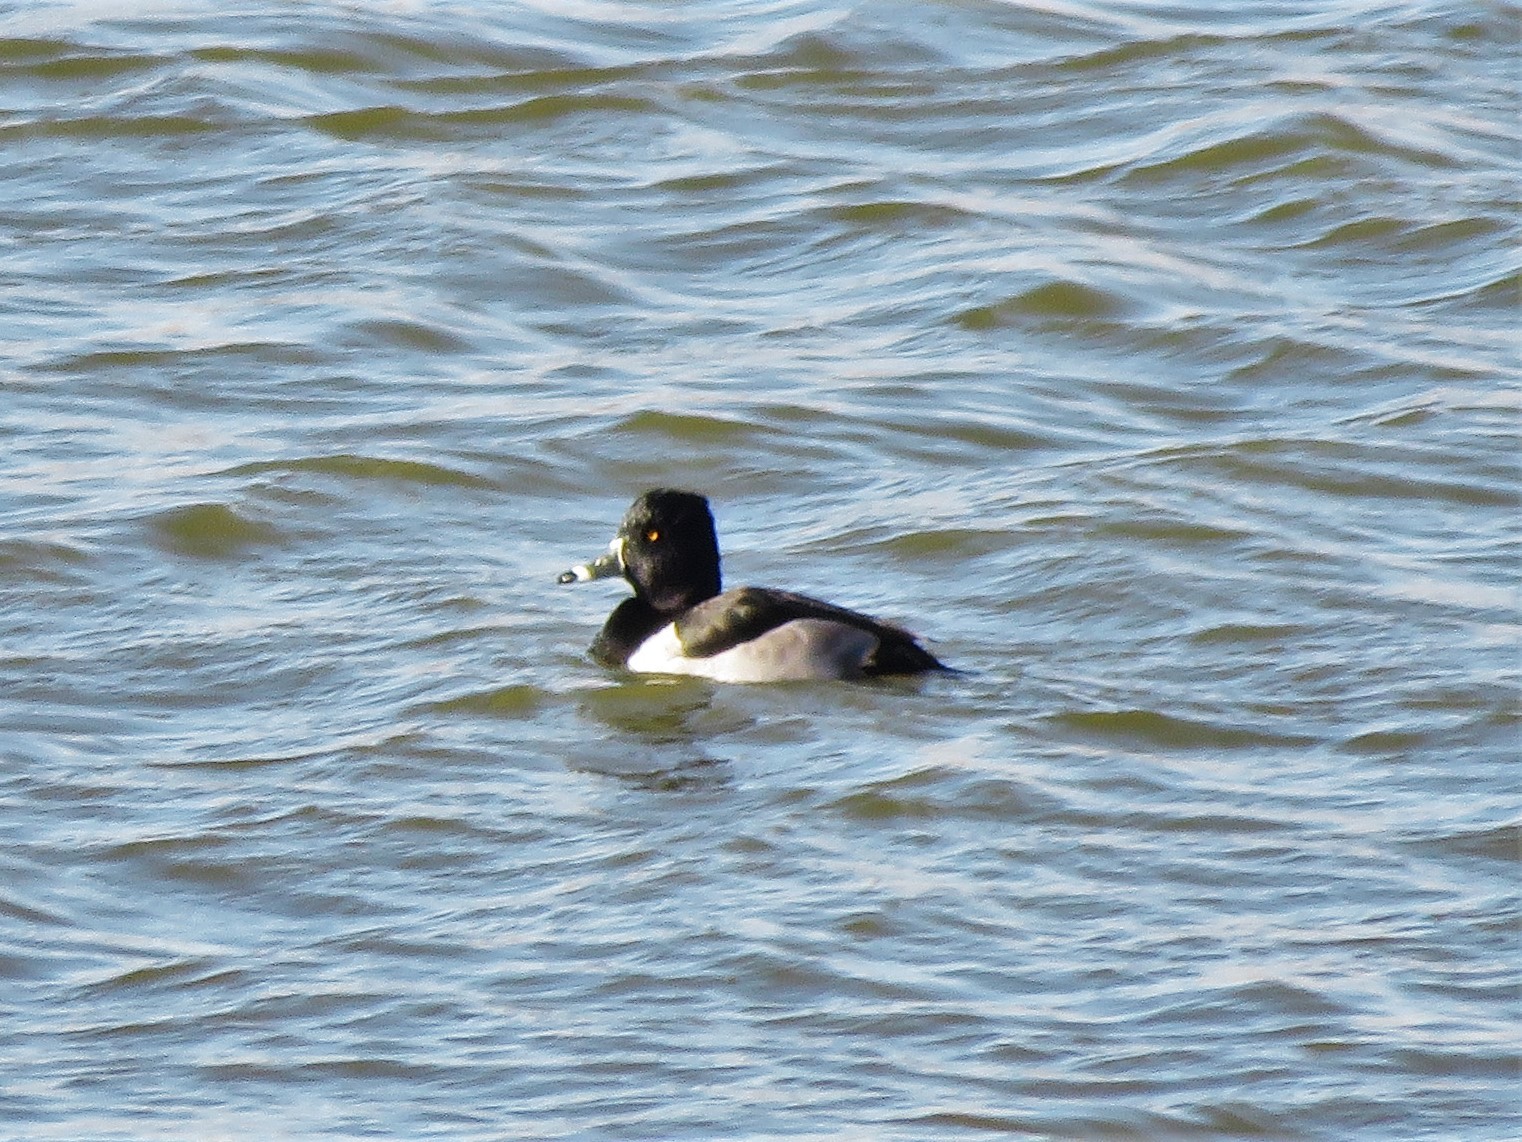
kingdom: Animalia
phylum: Chordata
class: Aves
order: Anseriformes
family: Anatidae
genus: Aythya
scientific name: Aythya collaris
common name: Ring-necked duck
